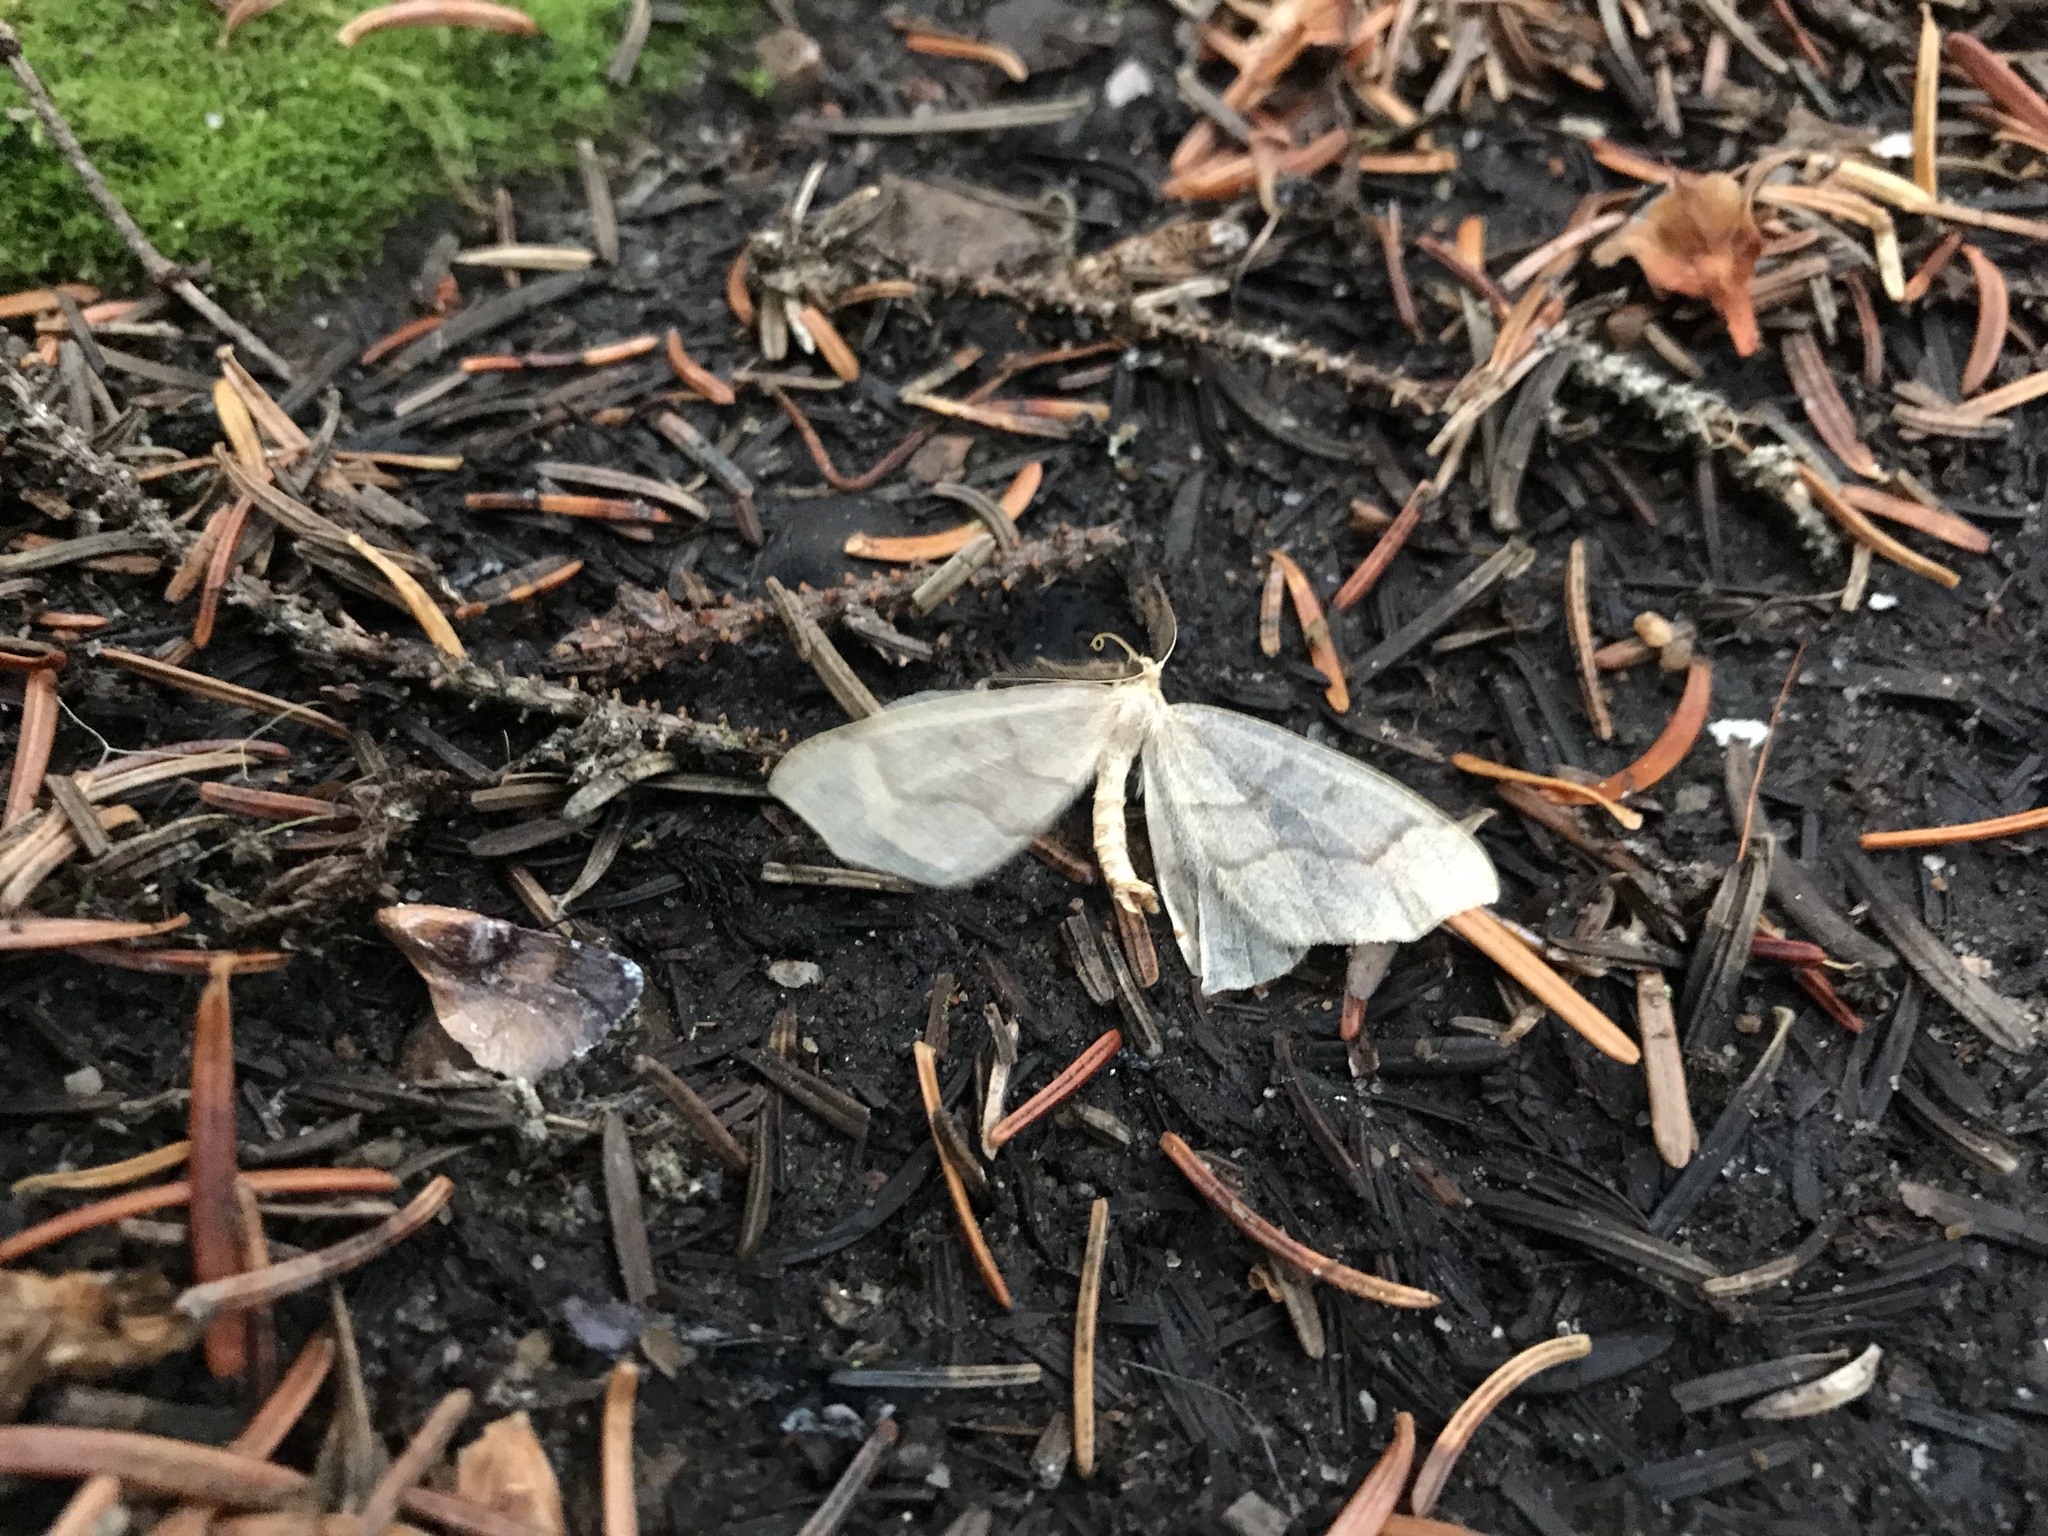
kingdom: Animalia
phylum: Arthropoda
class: Insecta
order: Lepidoptera
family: Geometridae
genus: Lambdina
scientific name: Lambdina fiscellaria
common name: Hemlock looper
